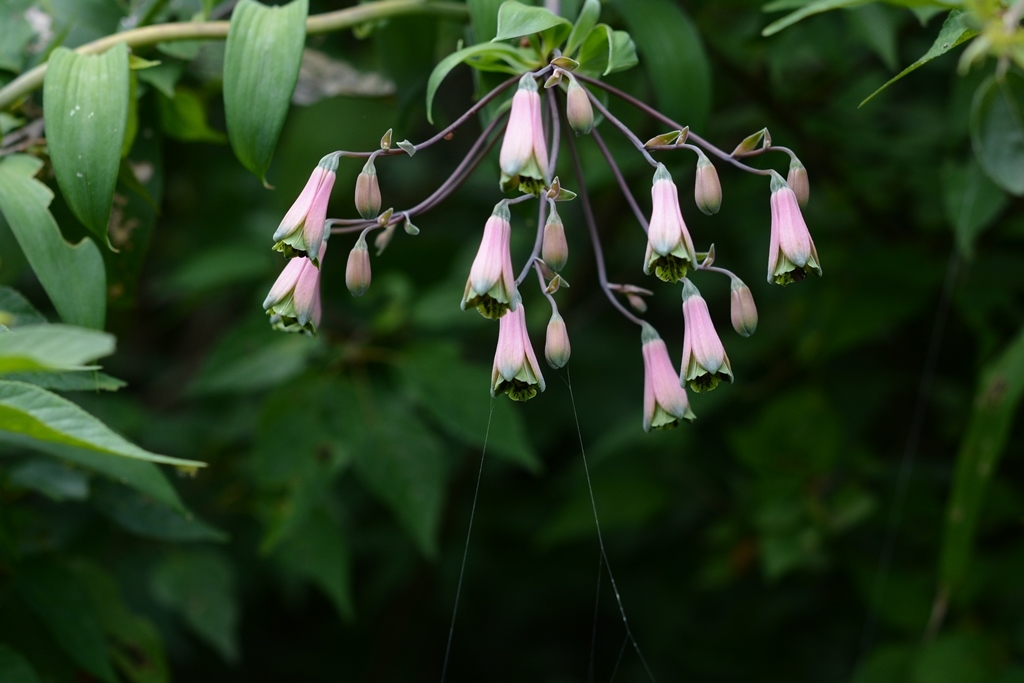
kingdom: Plantae
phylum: Tracheophyta
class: Liliopsida
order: Liliales
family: Alstroemeriaceae
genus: Bomarea
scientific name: Bomarea edulis
